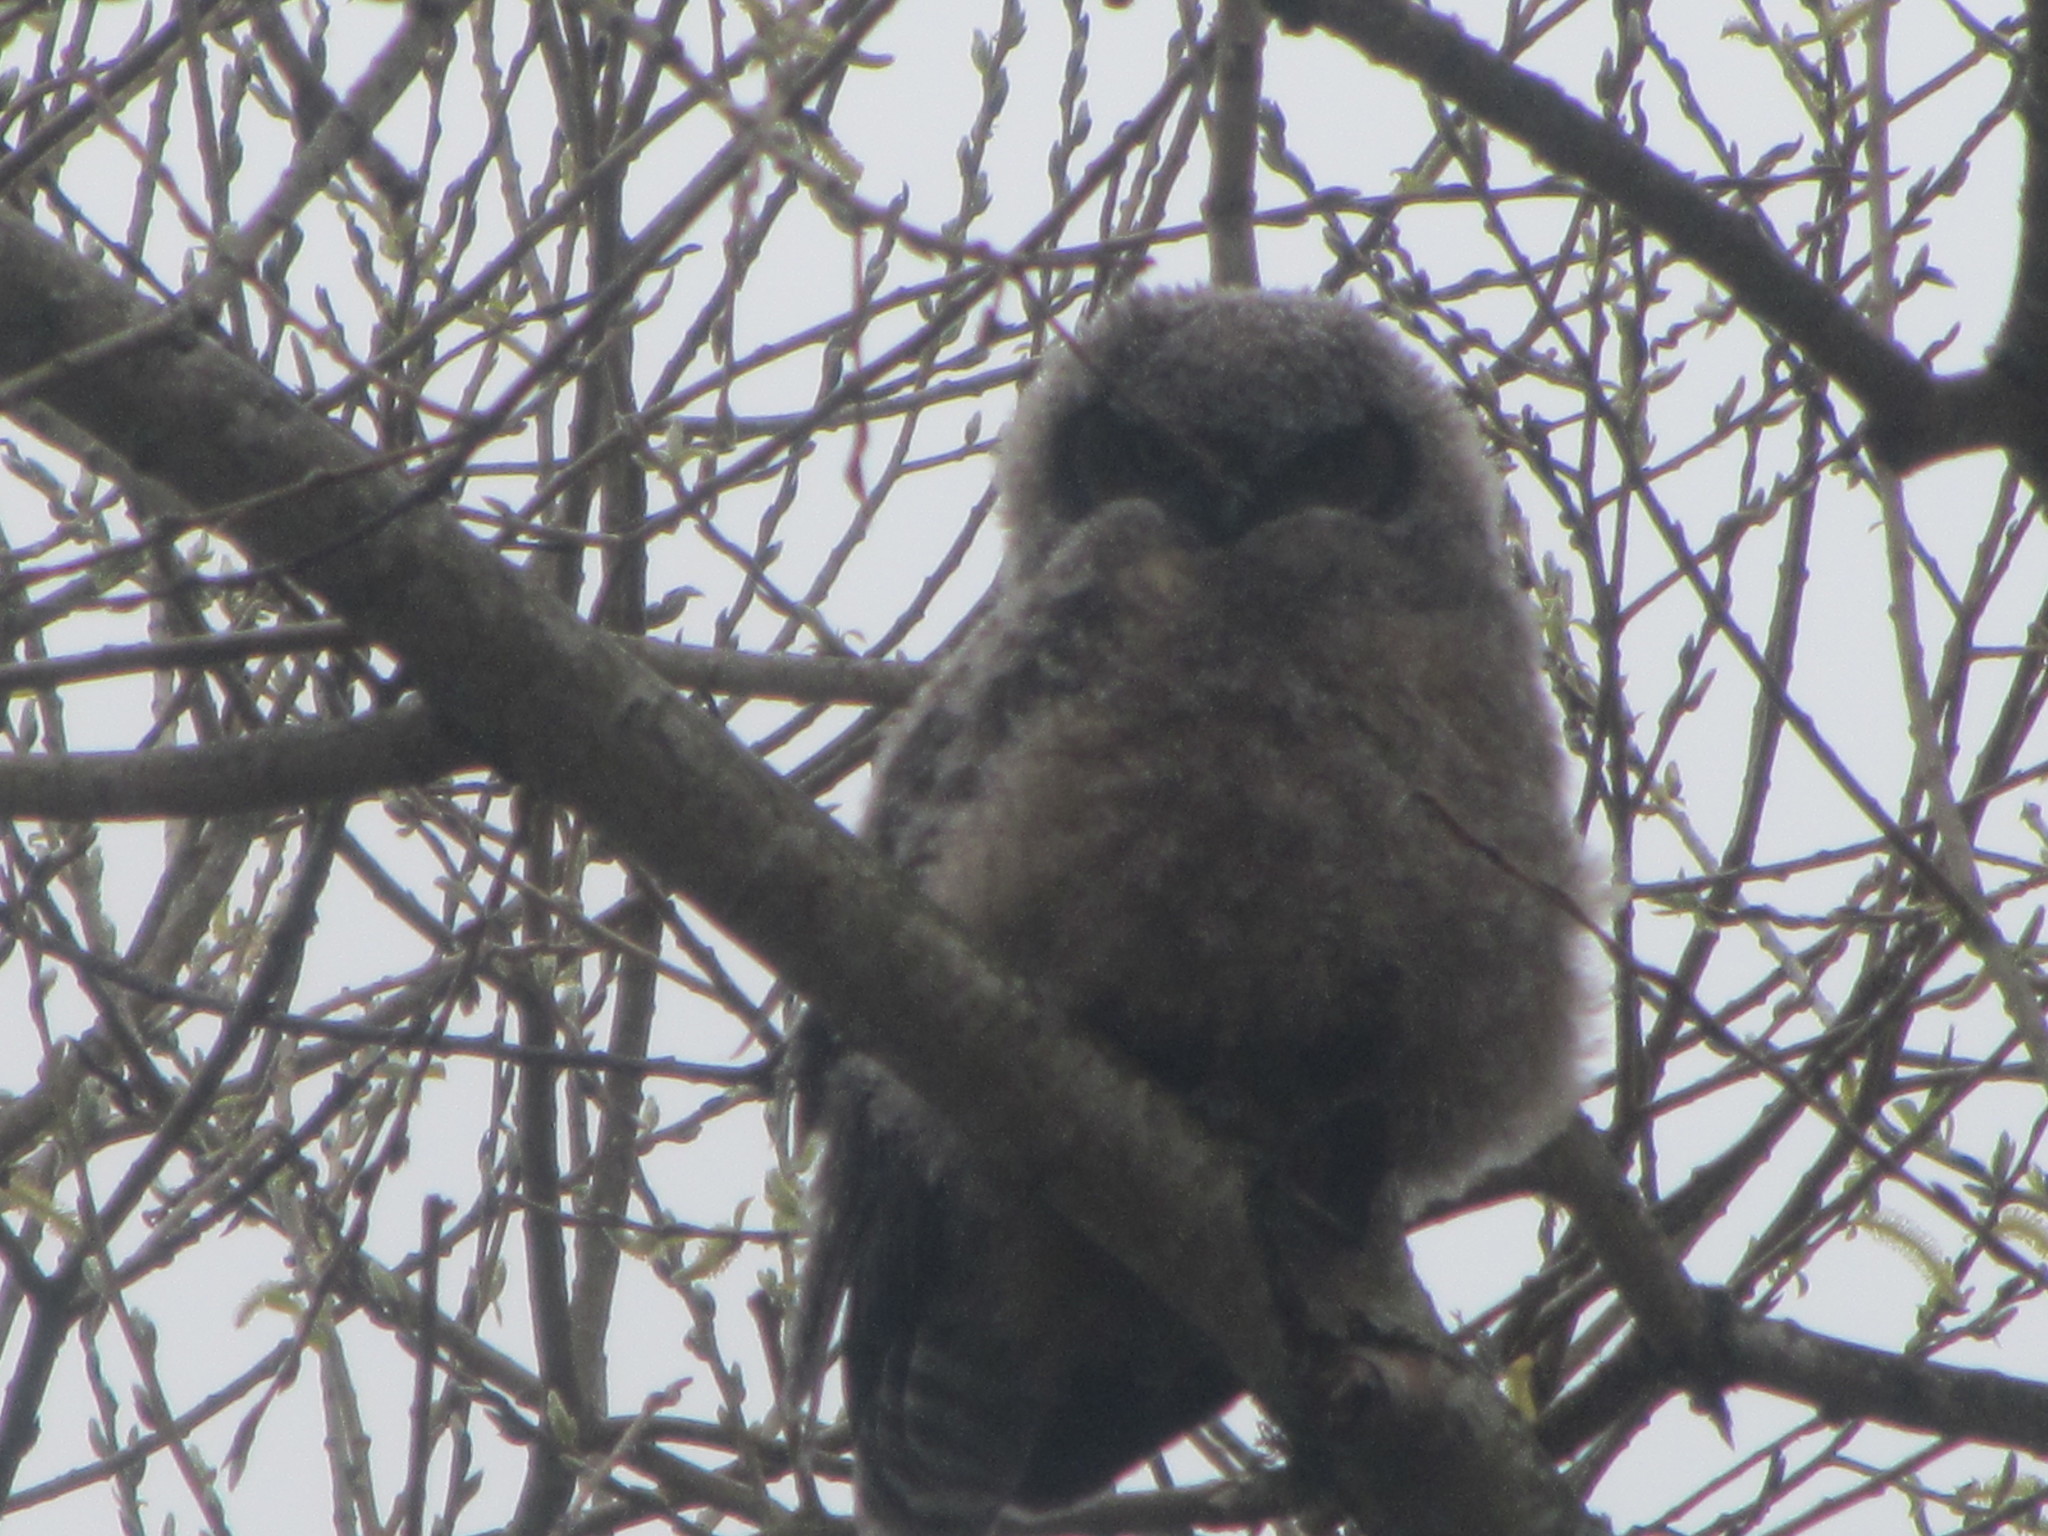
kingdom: Animalia
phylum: Chordata
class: Aves
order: Strigiformes
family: Strigidae
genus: Bubo
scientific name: Bubo virginianus
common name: Great horned owl
